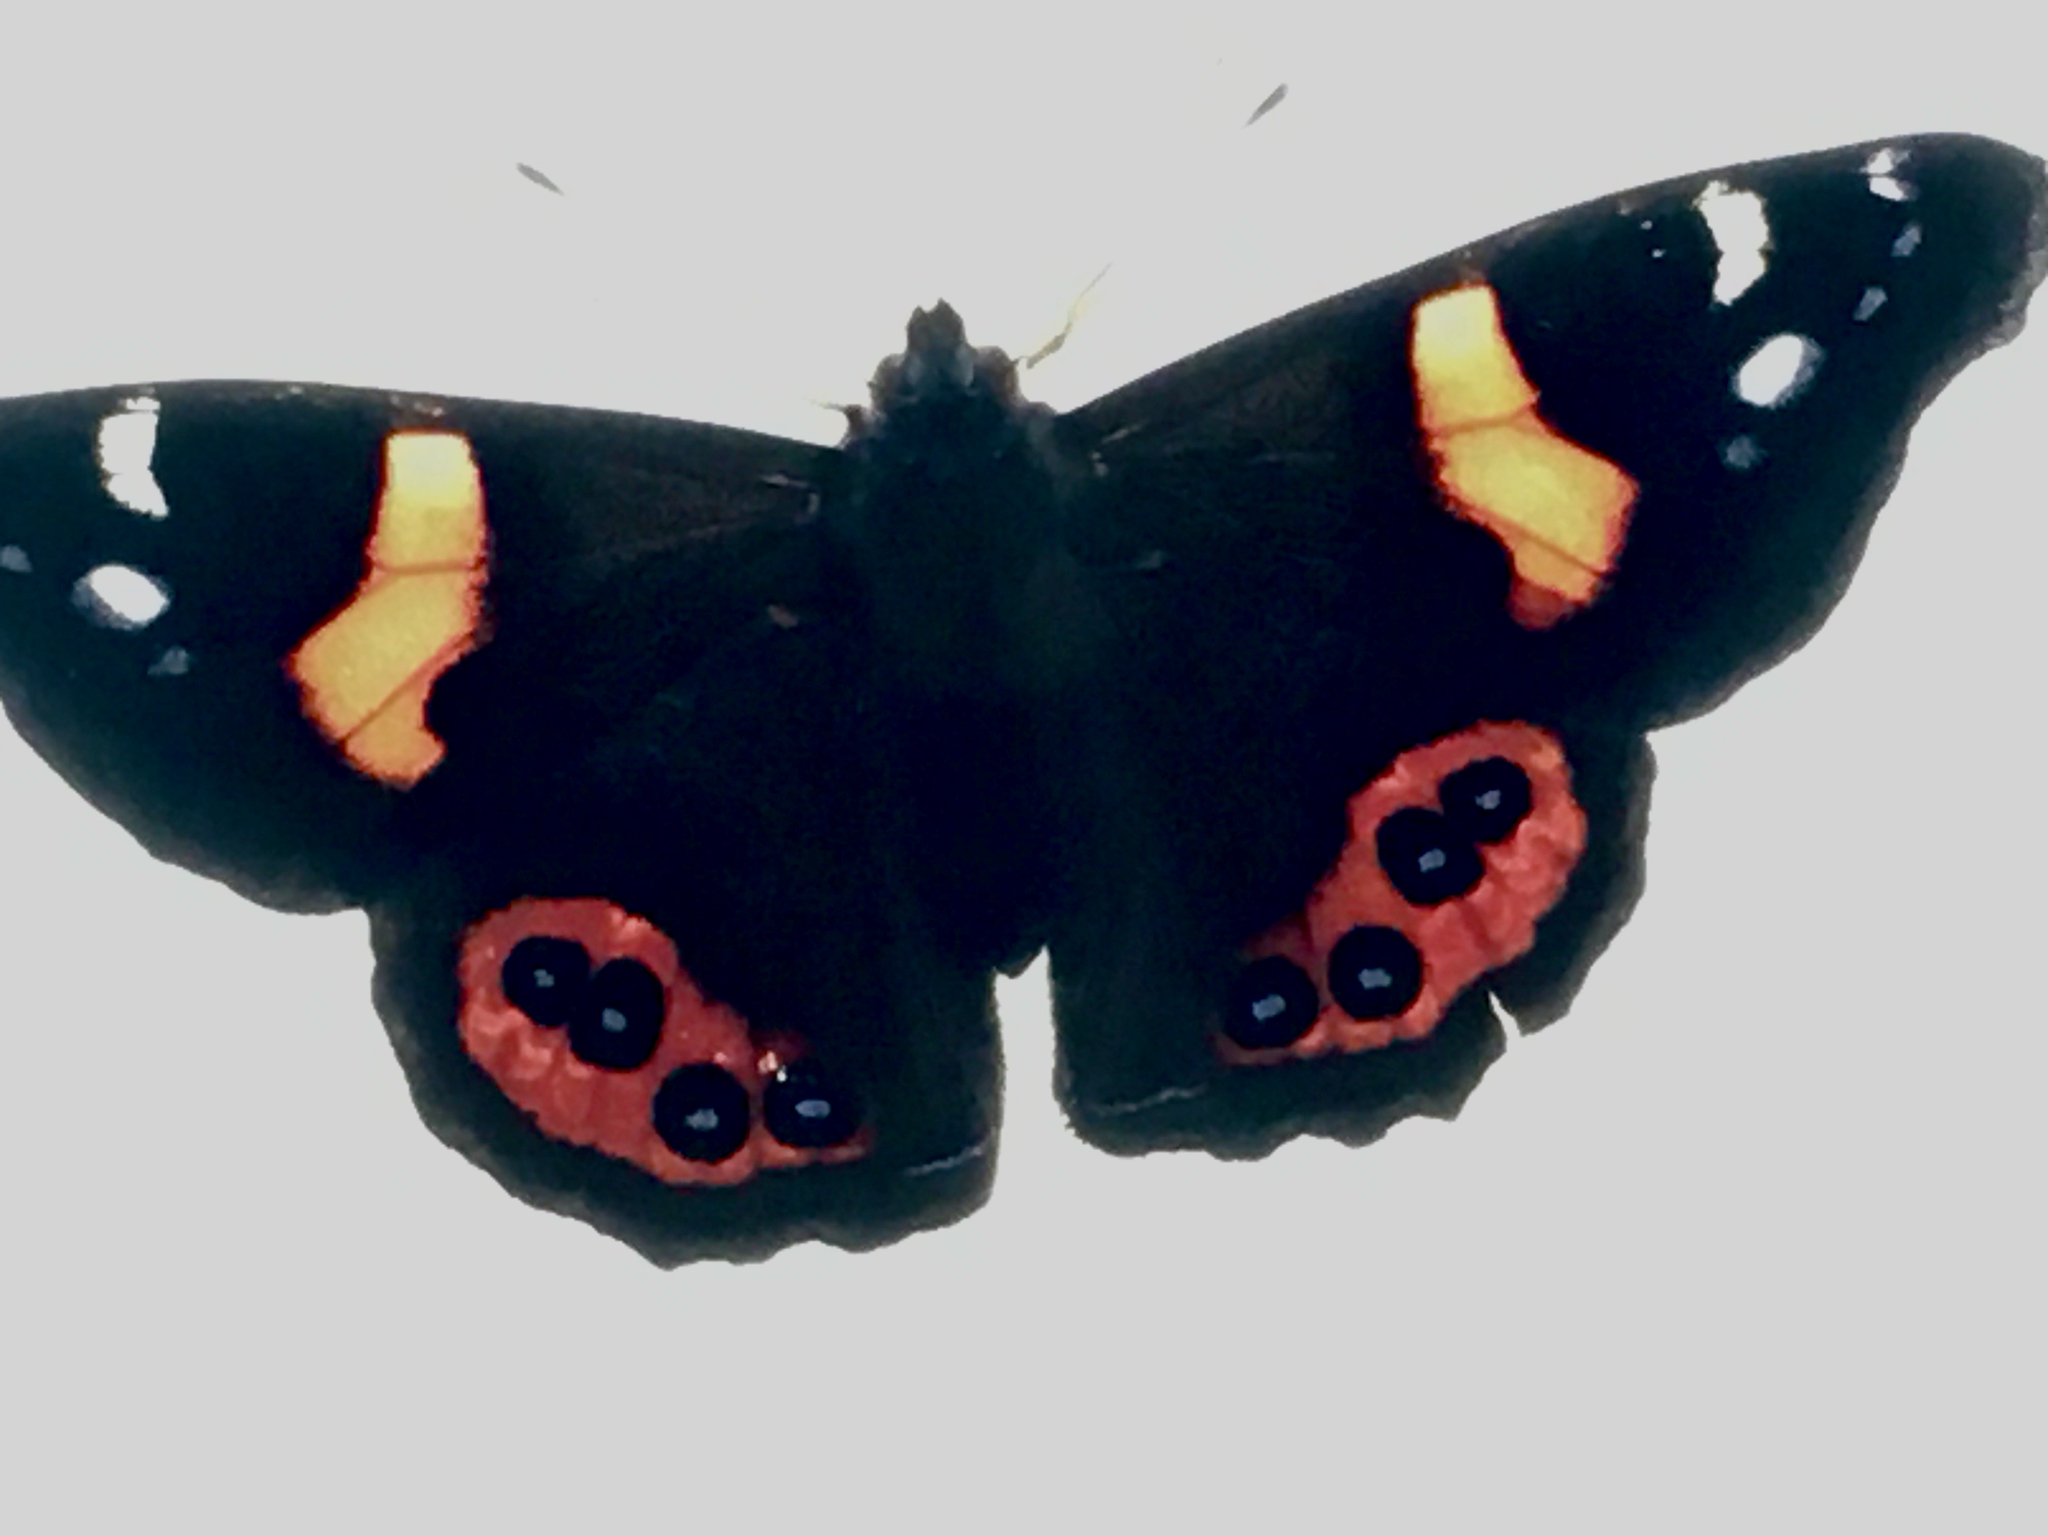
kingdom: Animalia
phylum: Arthropoda
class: Insecta
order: Lepidoptera
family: Nymphalidae
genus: Vanessa
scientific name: Vanessa gonerilla
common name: New zealand red admiral
